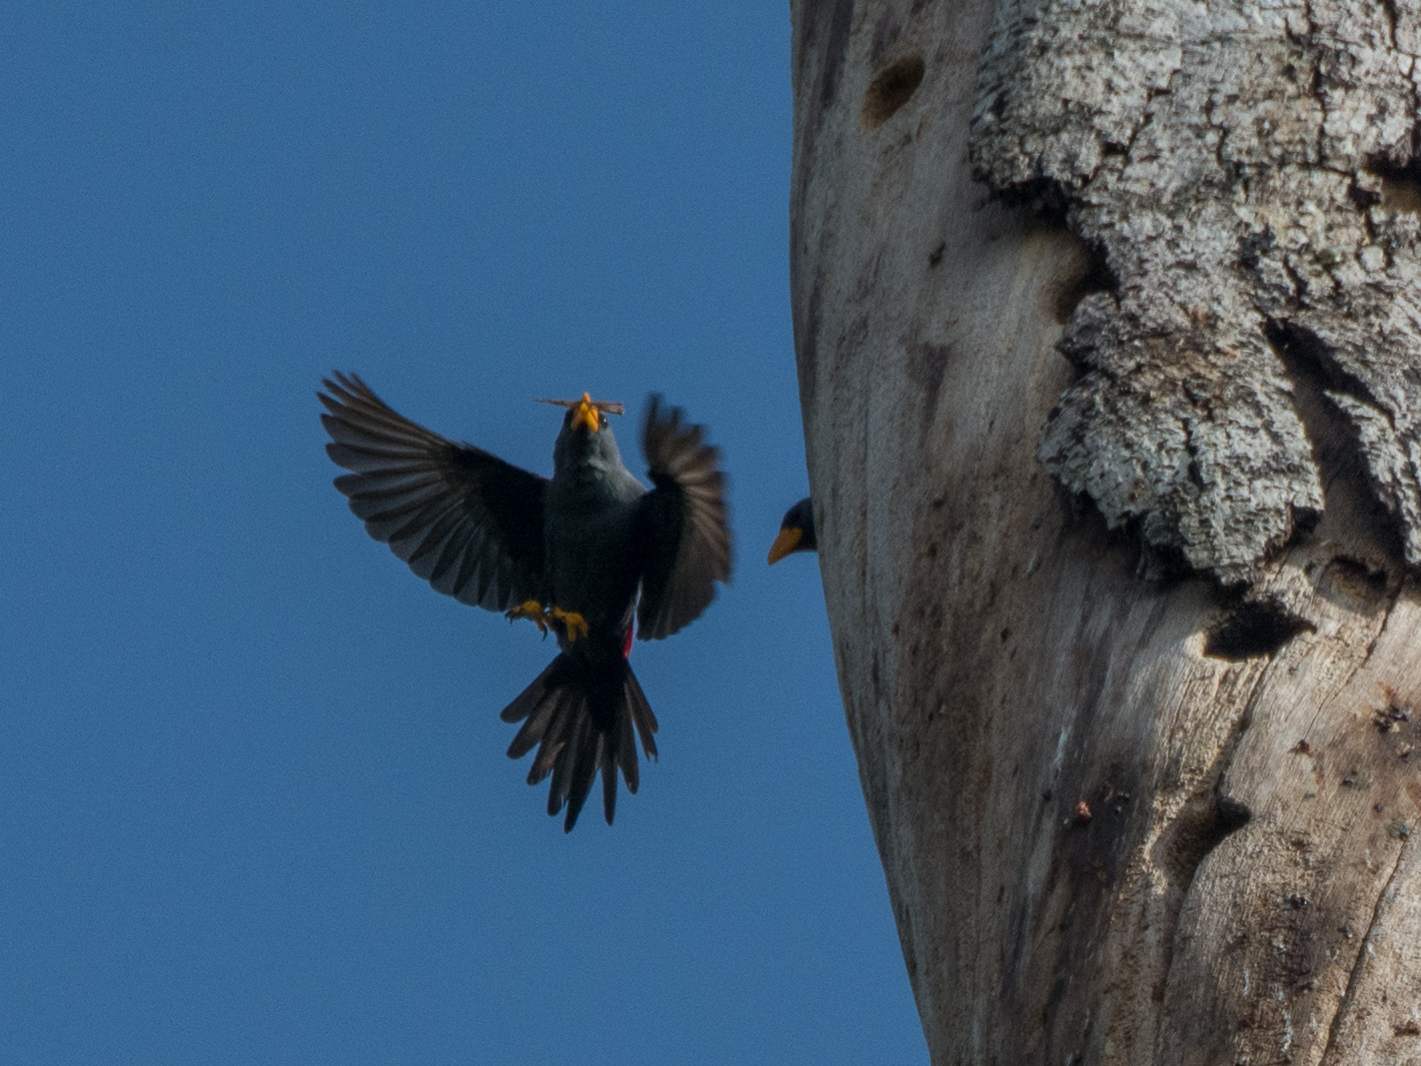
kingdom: Animalia
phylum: Chordata
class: Aves
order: Passeriformes
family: Sturnidae
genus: Scissirostrum
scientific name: Scissirostrum dubium
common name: Grosbeak starling
